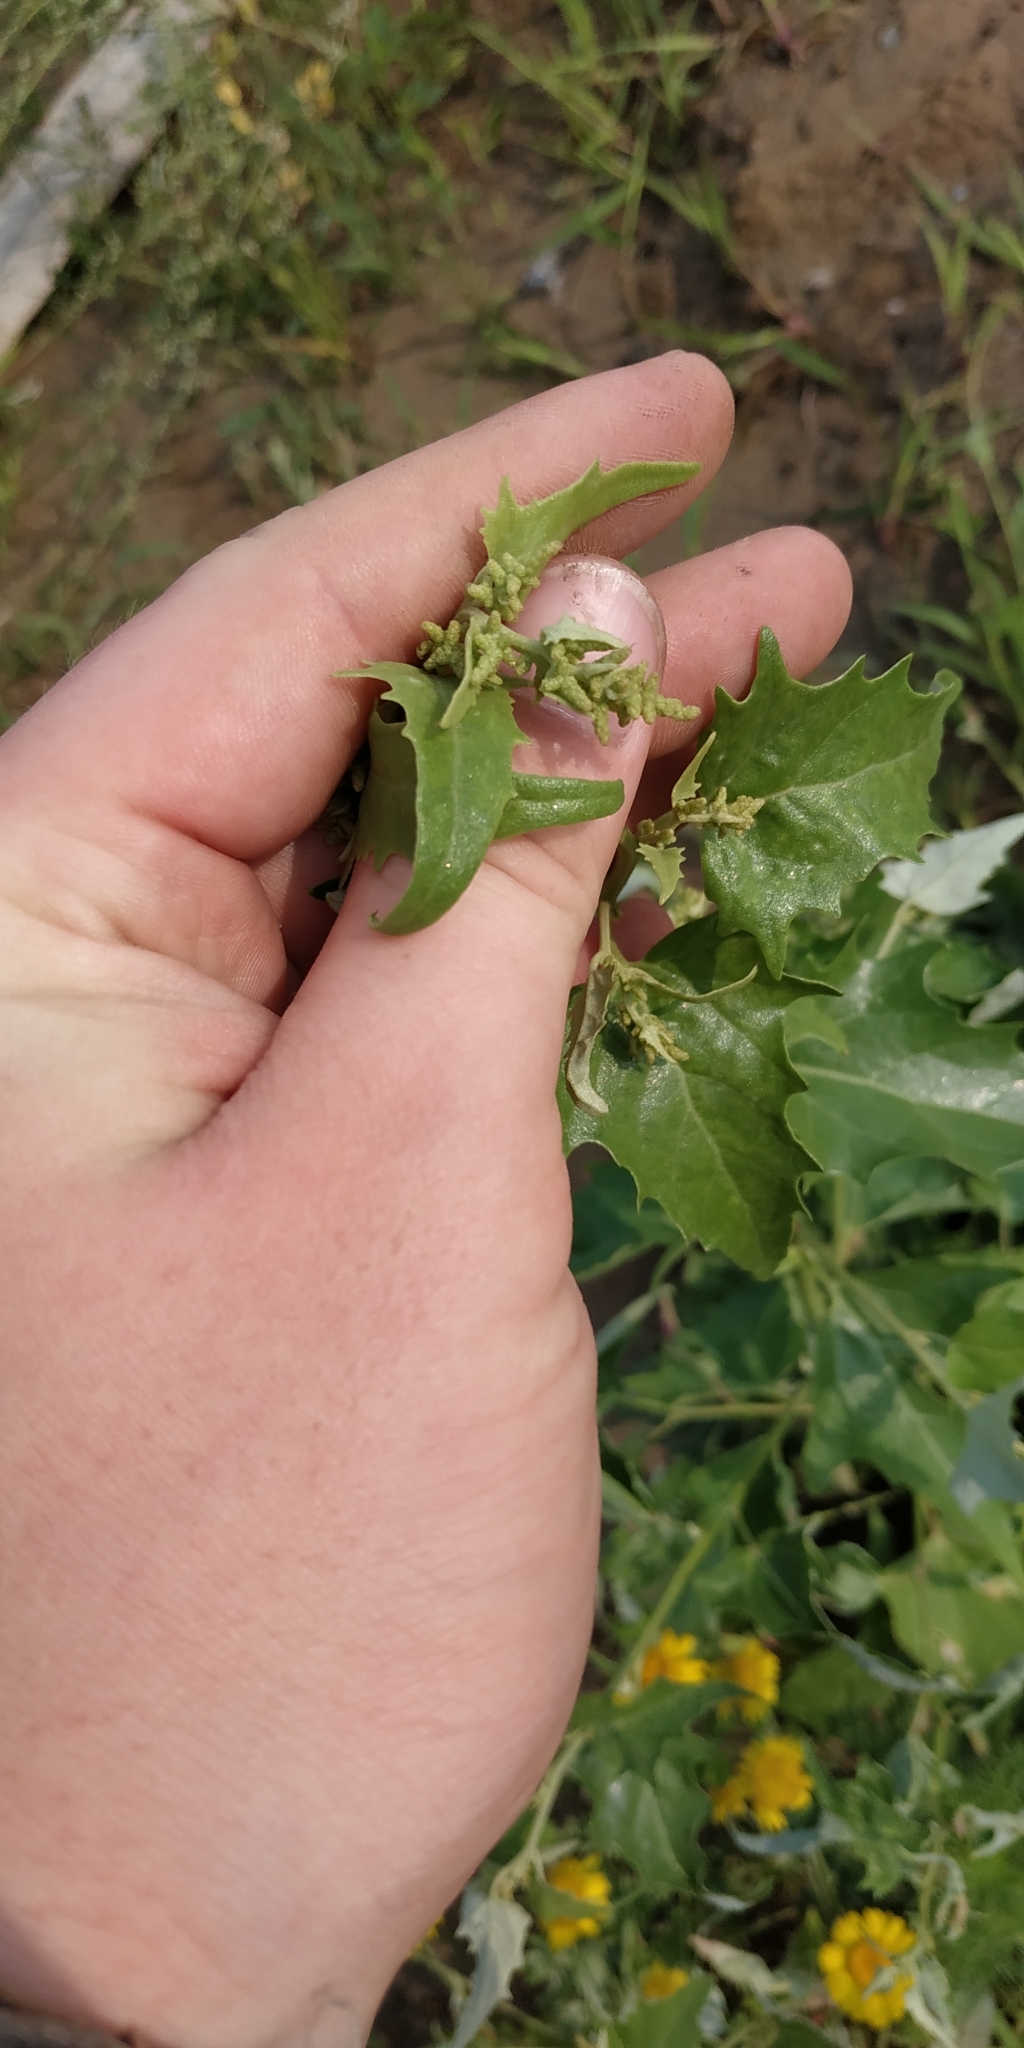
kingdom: Plantae
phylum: Tracheophyta
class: Magnoliopsida
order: Caryophyllales
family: Amaranthaceae
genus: Atriplex
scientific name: Atriplex sagittata
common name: Purple orache
